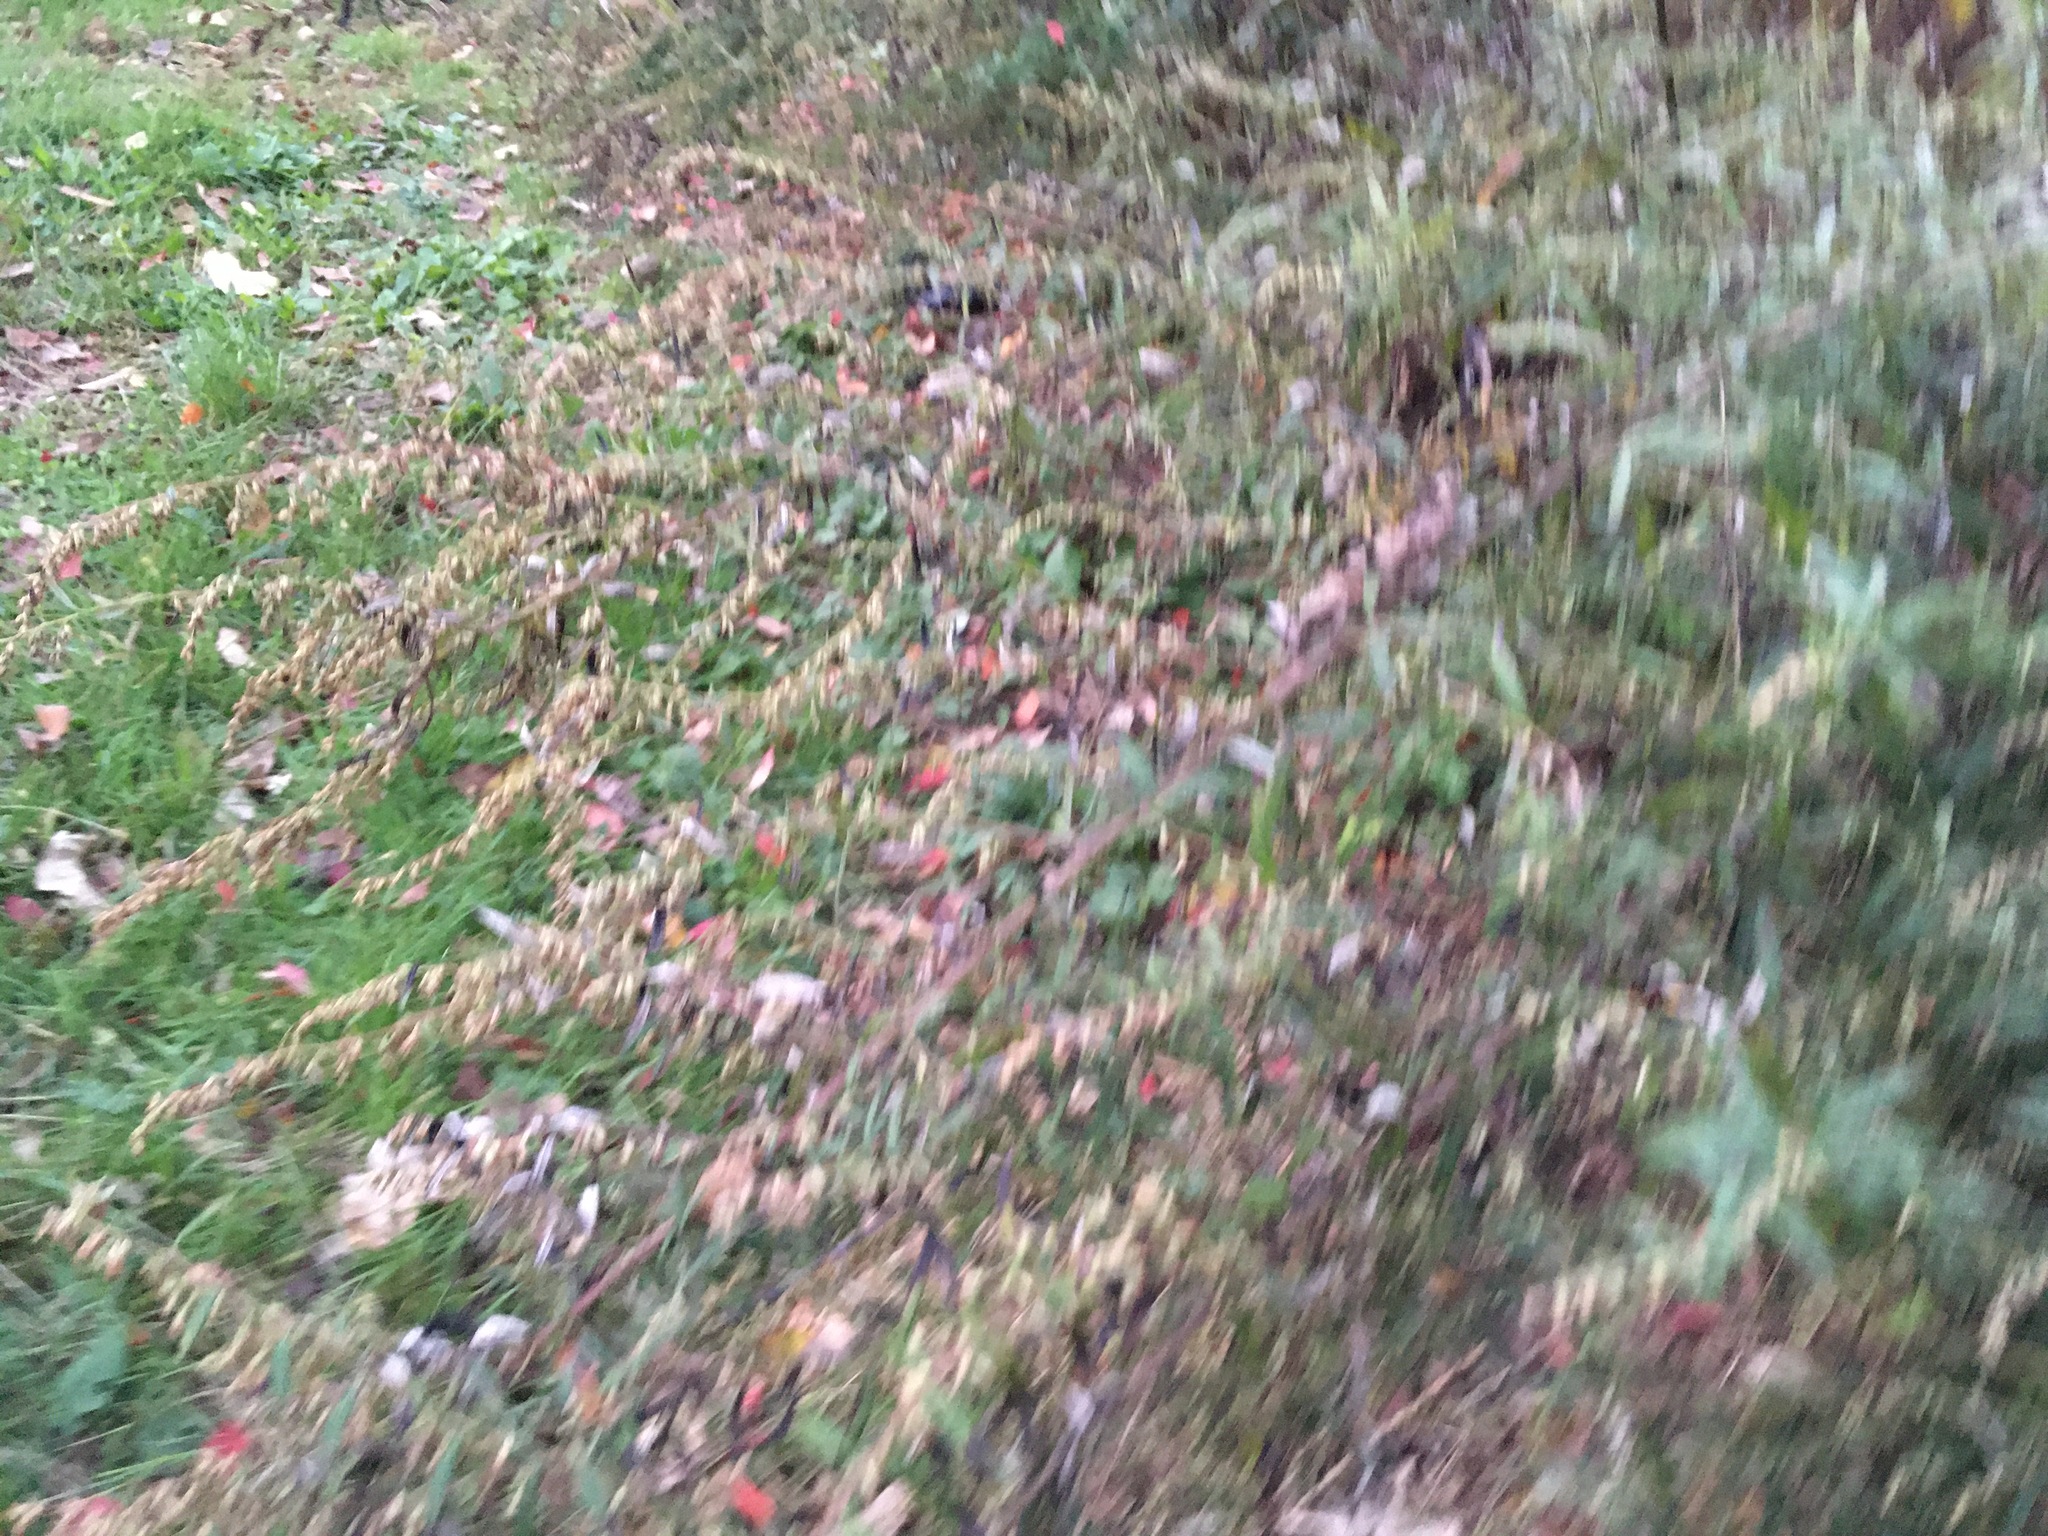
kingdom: Plantae
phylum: Tracheophyta
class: Magnoliopsida
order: Asterales
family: Asteraceae
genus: Artemisia
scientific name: Artemisia vulgaris
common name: Mugwort
